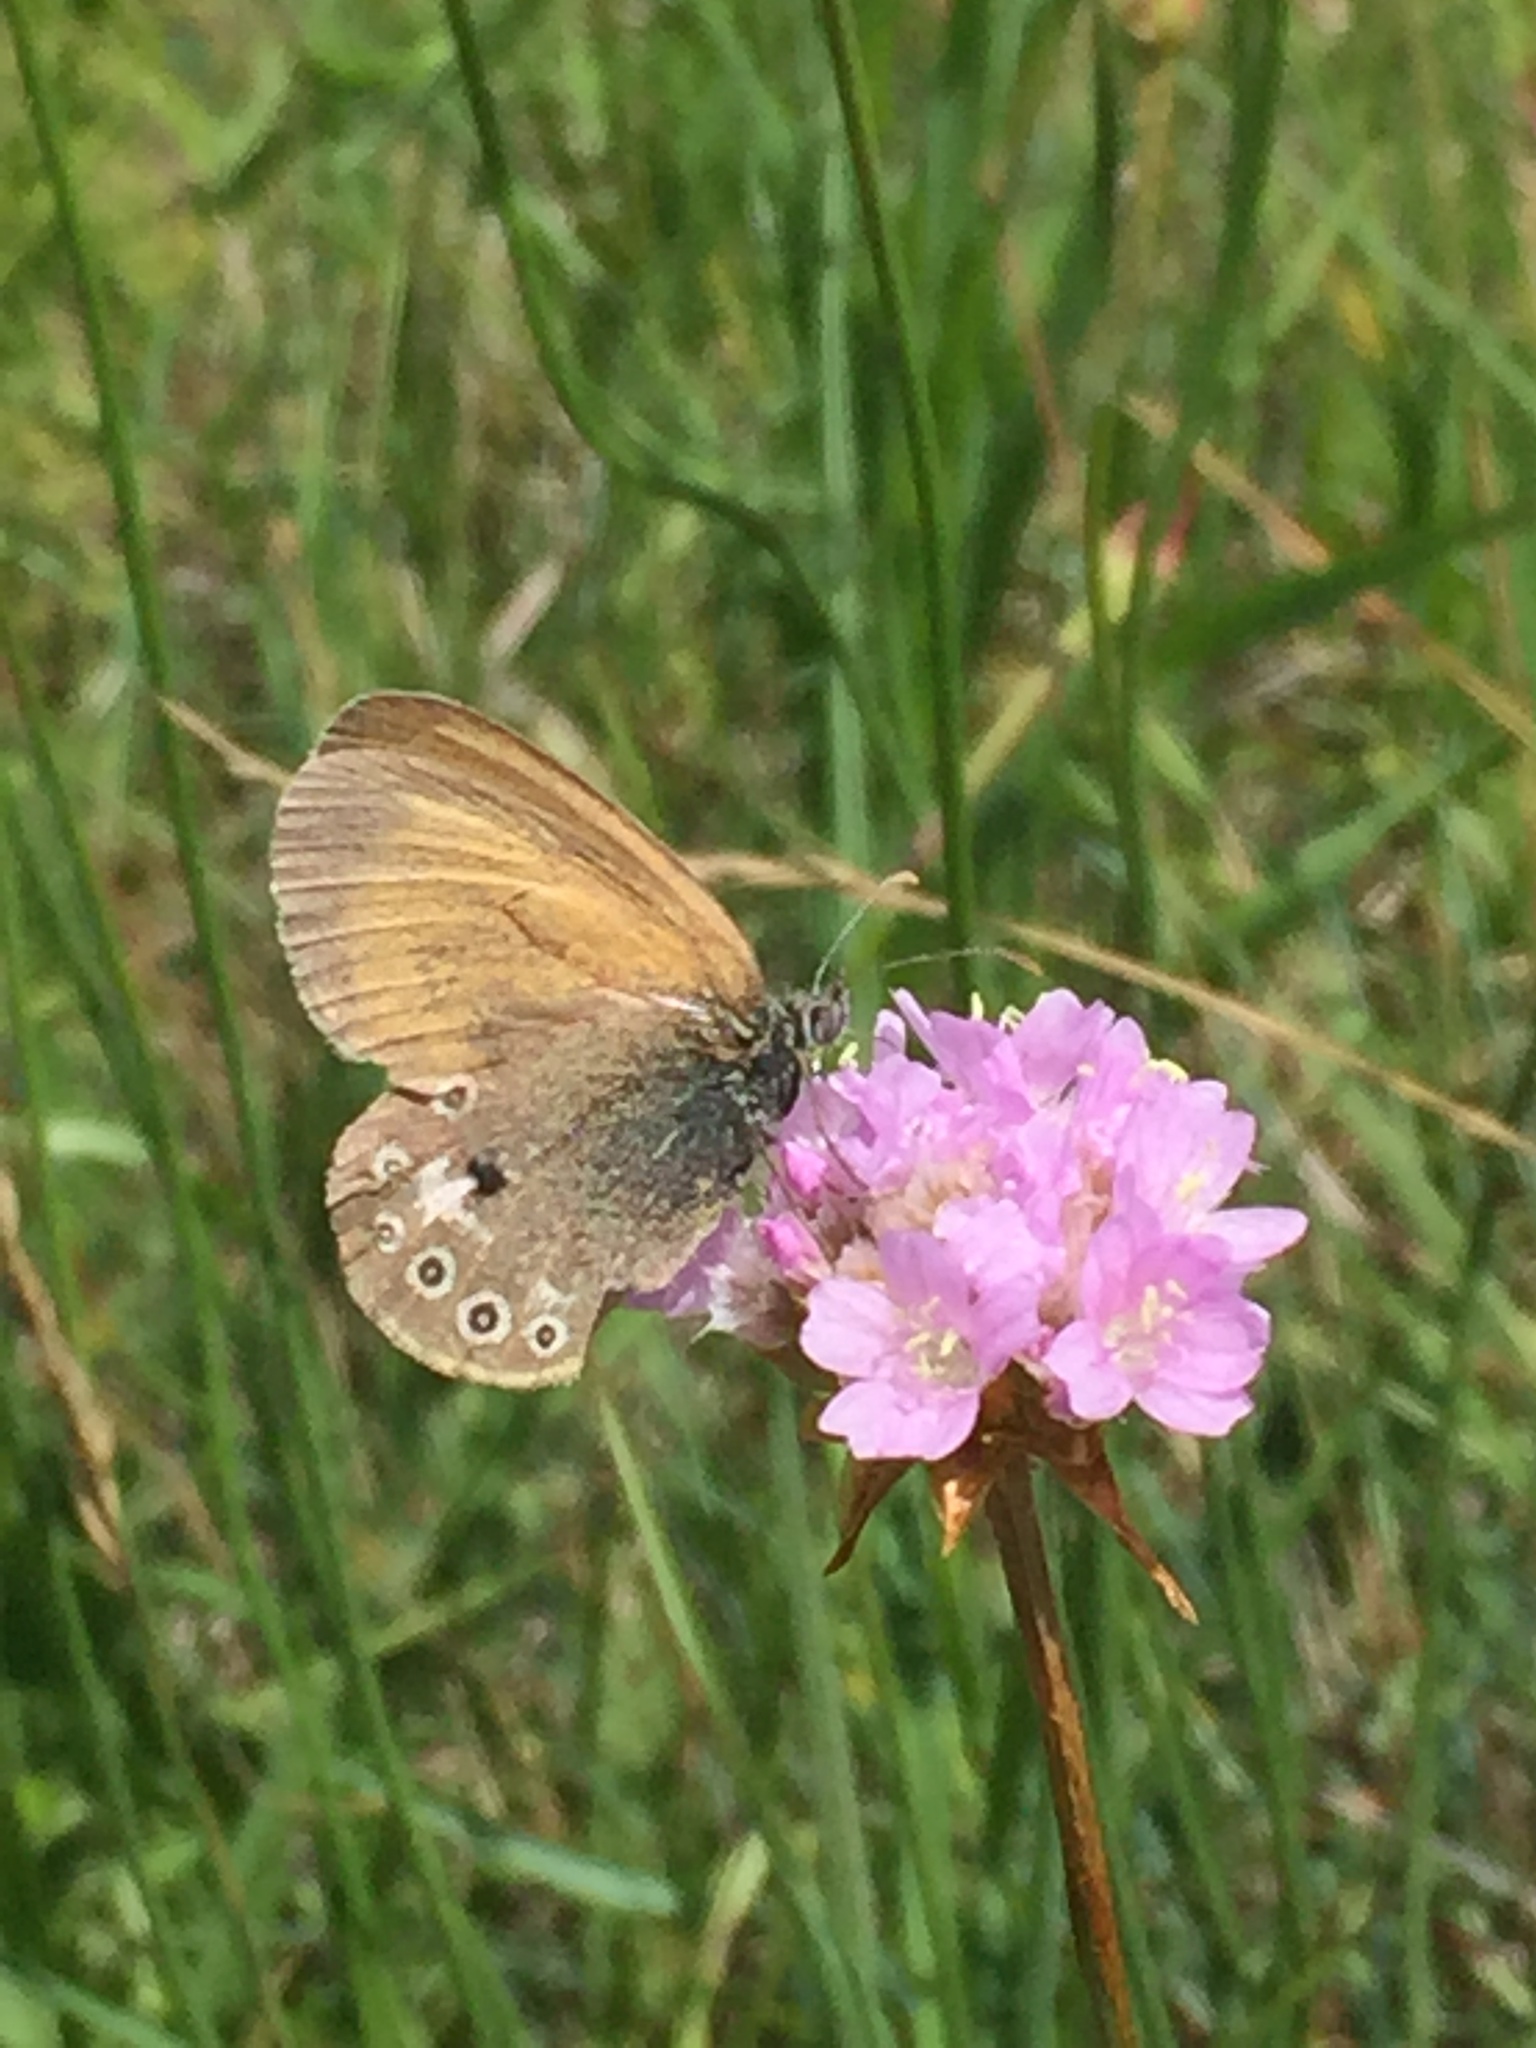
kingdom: Animalia
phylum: Arthropoda
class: Insecta
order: Lepidoptera
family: Nymphalidae
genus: Coenonympha
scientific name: Coenonympha iphis
